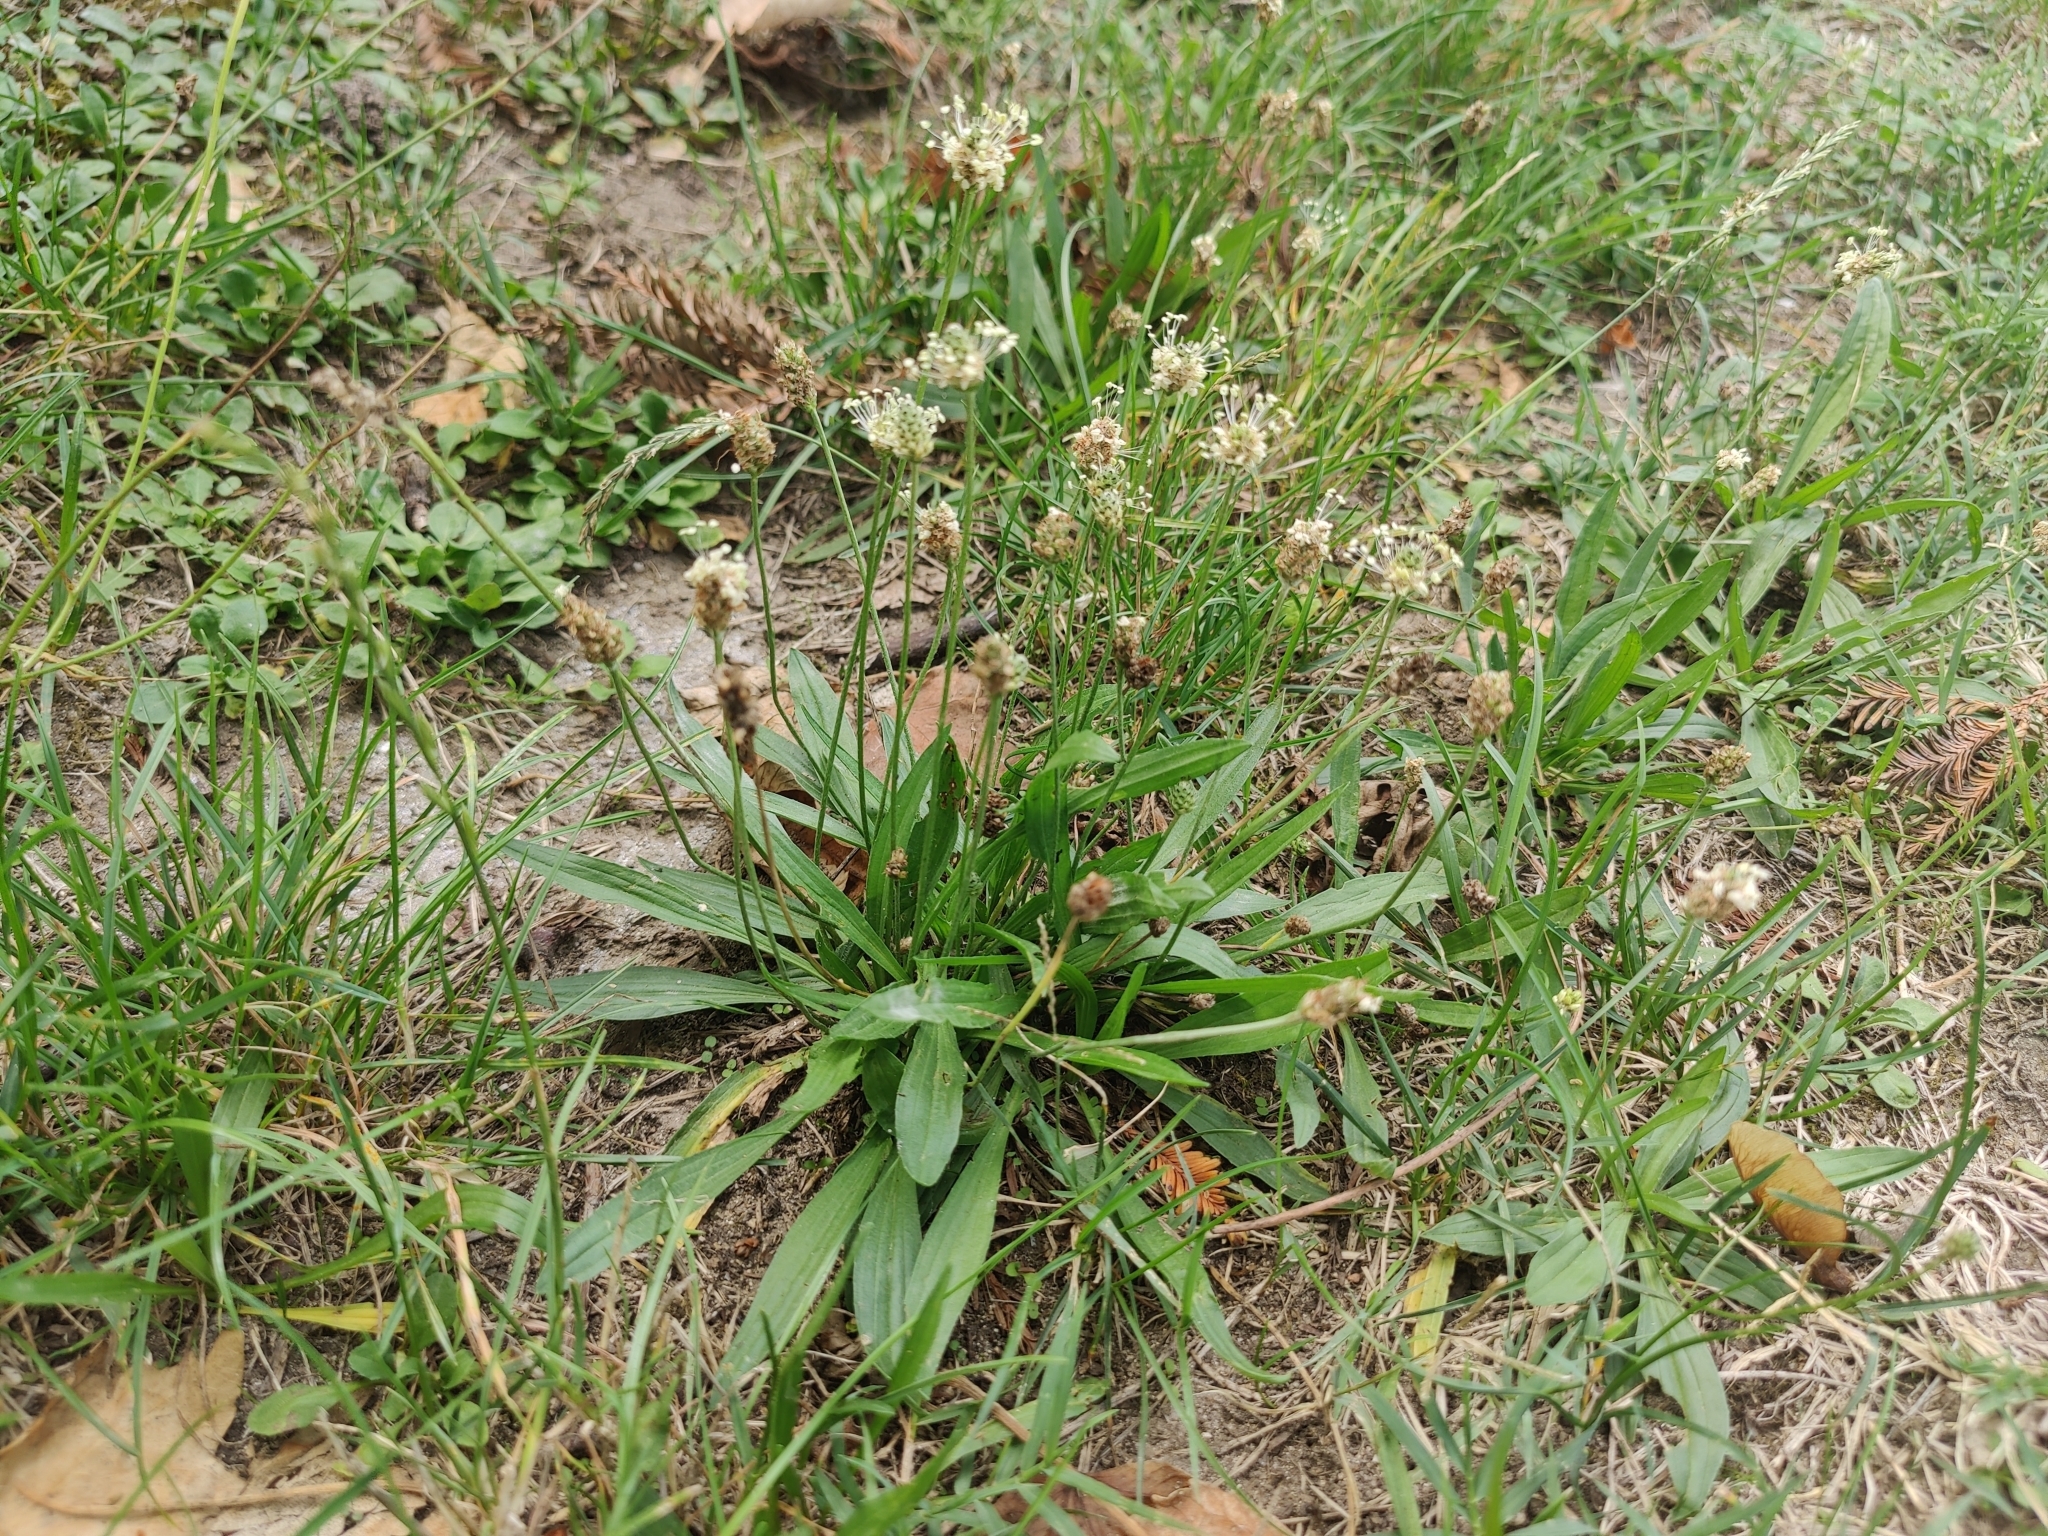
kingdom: Plantae
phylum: Tracheophyta
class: Magnoliopsida
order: Lamiales
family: Plantaginaceae
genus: Plantago
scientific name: Plantago lanceolata
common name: Ribwort plantain
